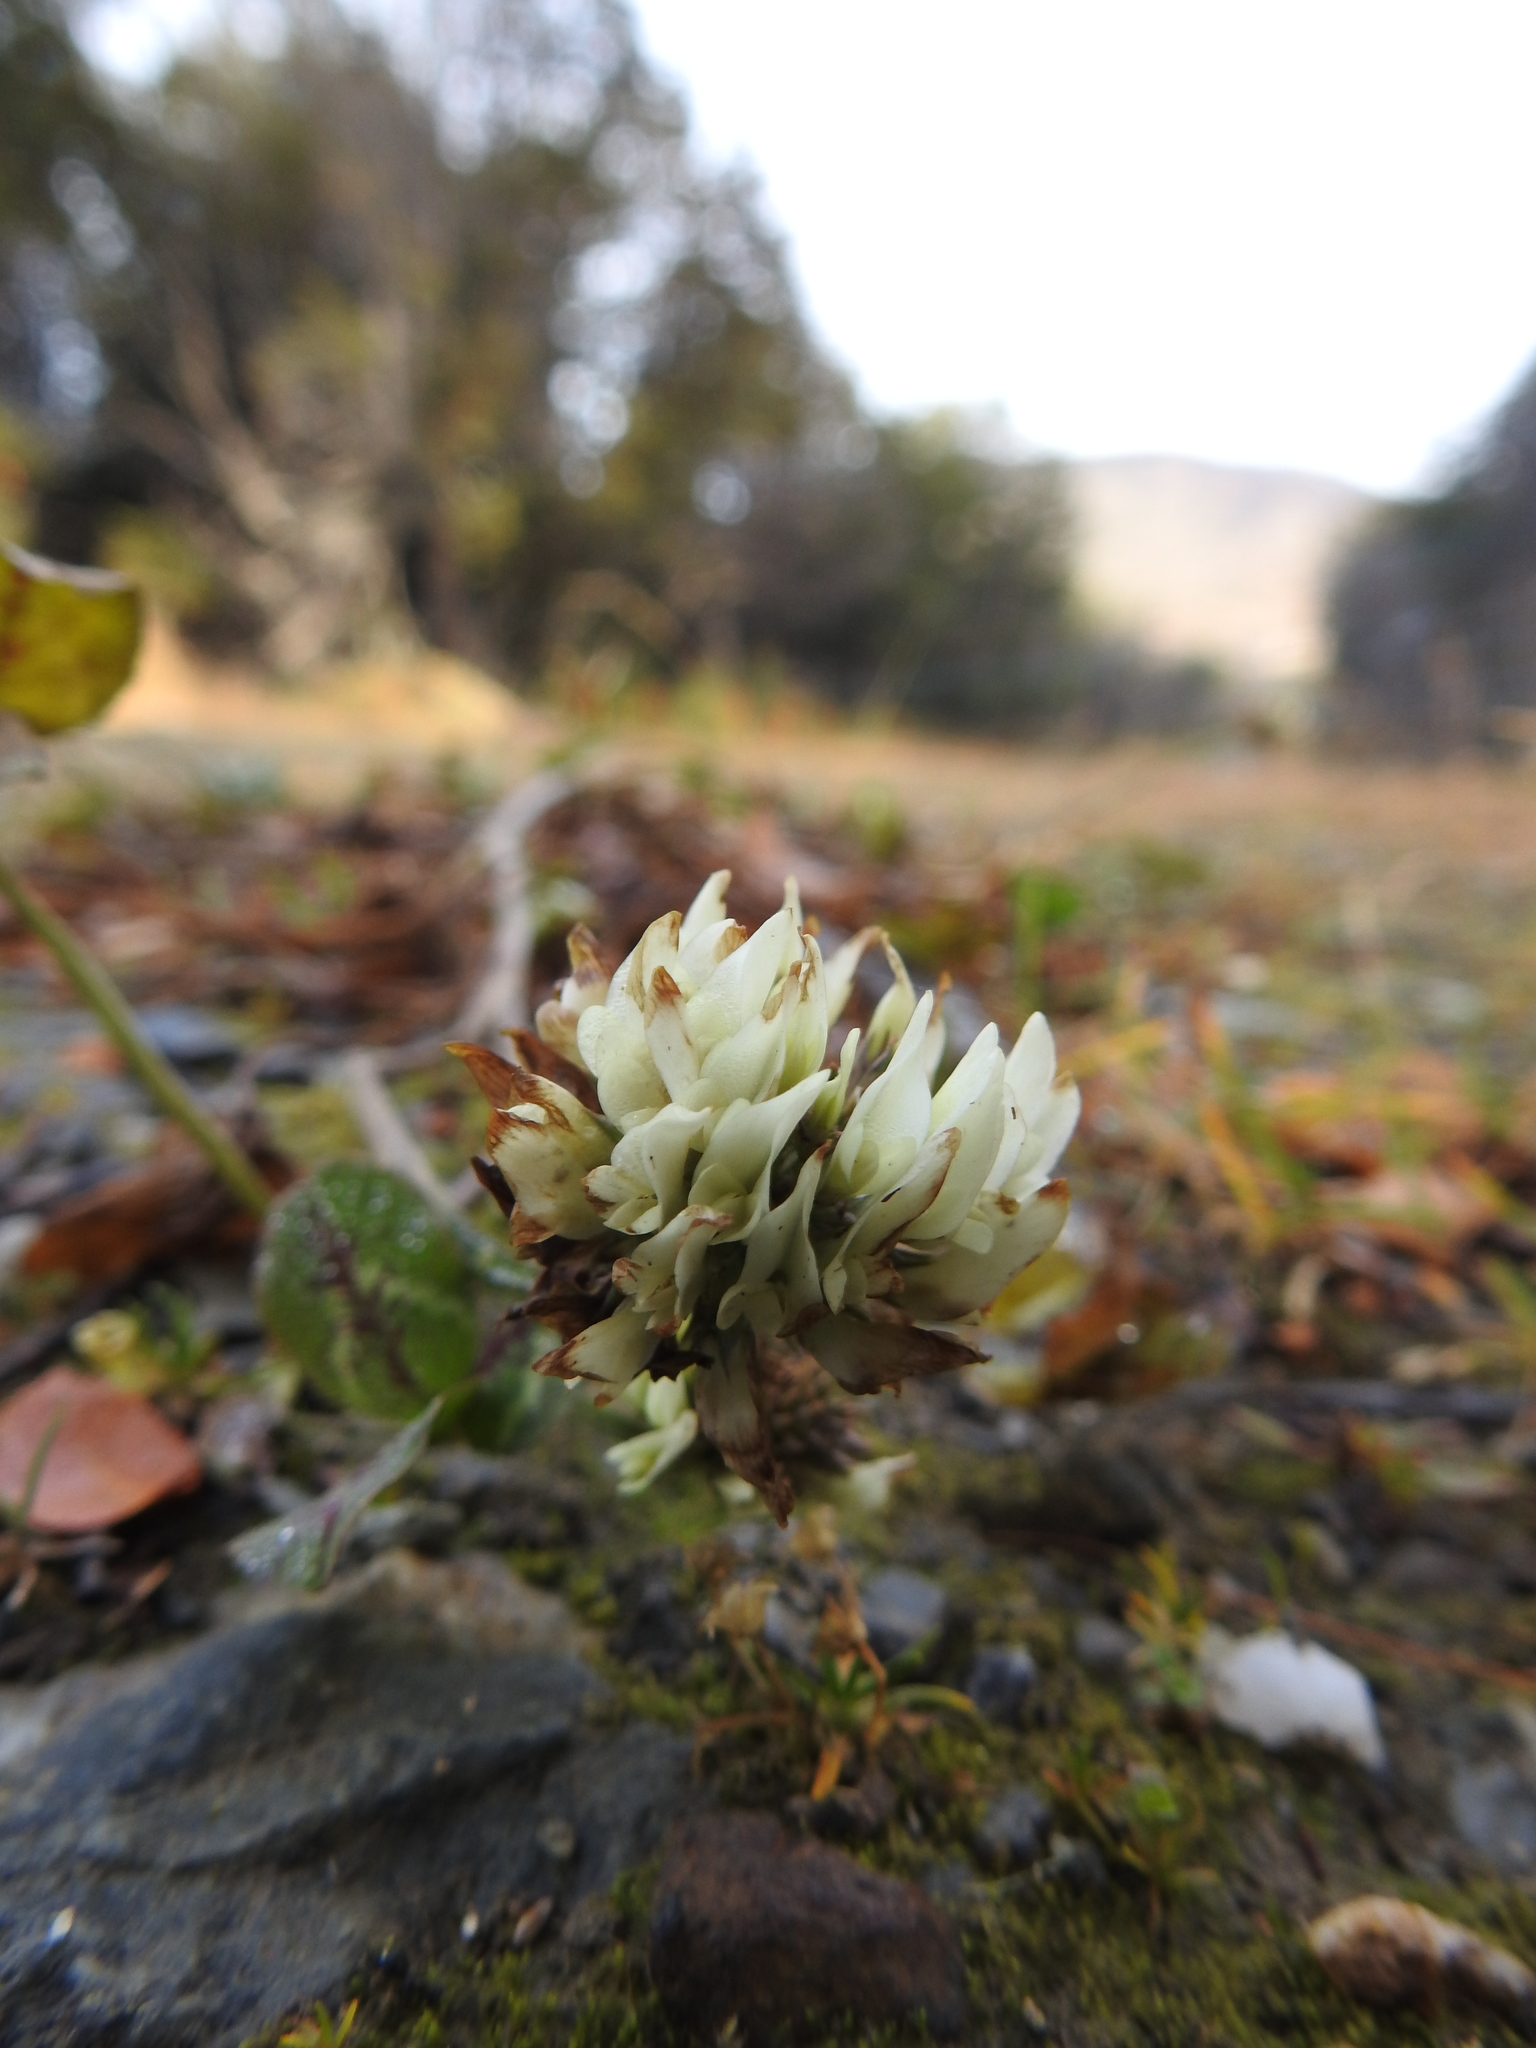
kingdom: Plantae
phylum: Tracheophyta
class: Magnoliopsida
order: Fabales
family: Fabaceae
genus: Trifolium
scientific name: Trifolium repens
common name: White clover
